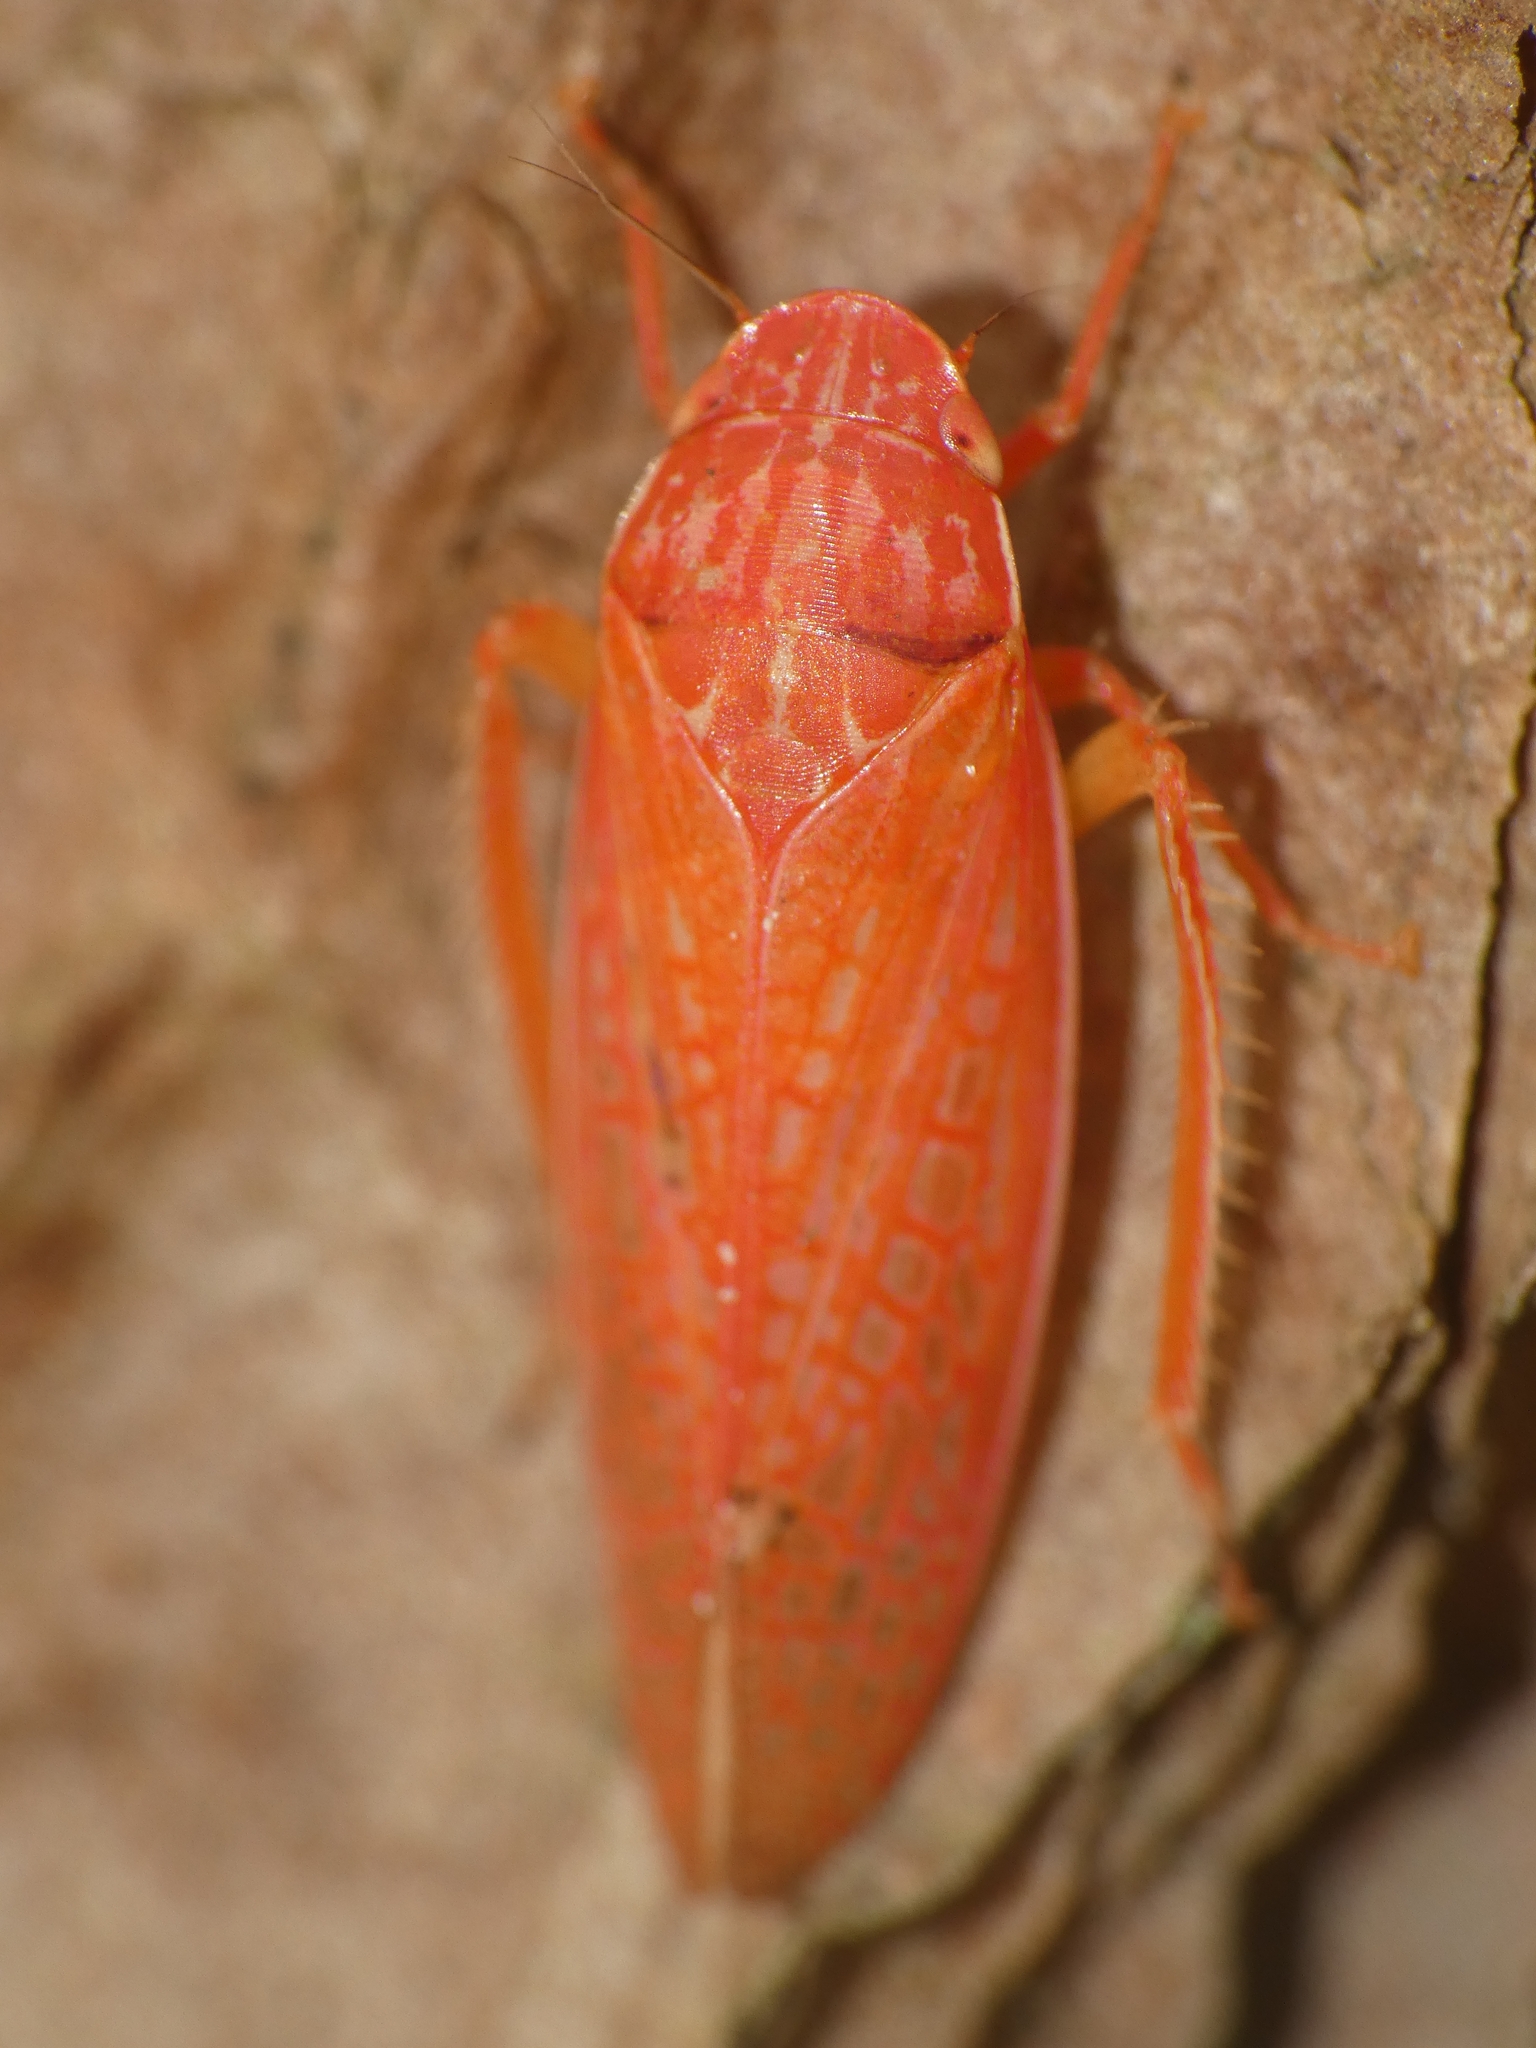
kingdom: Animalia
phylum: Arthropoda
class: Insecta
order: Hemiptera
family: Cicadellidae
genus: Gyponana
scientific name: Gyponana gladia
